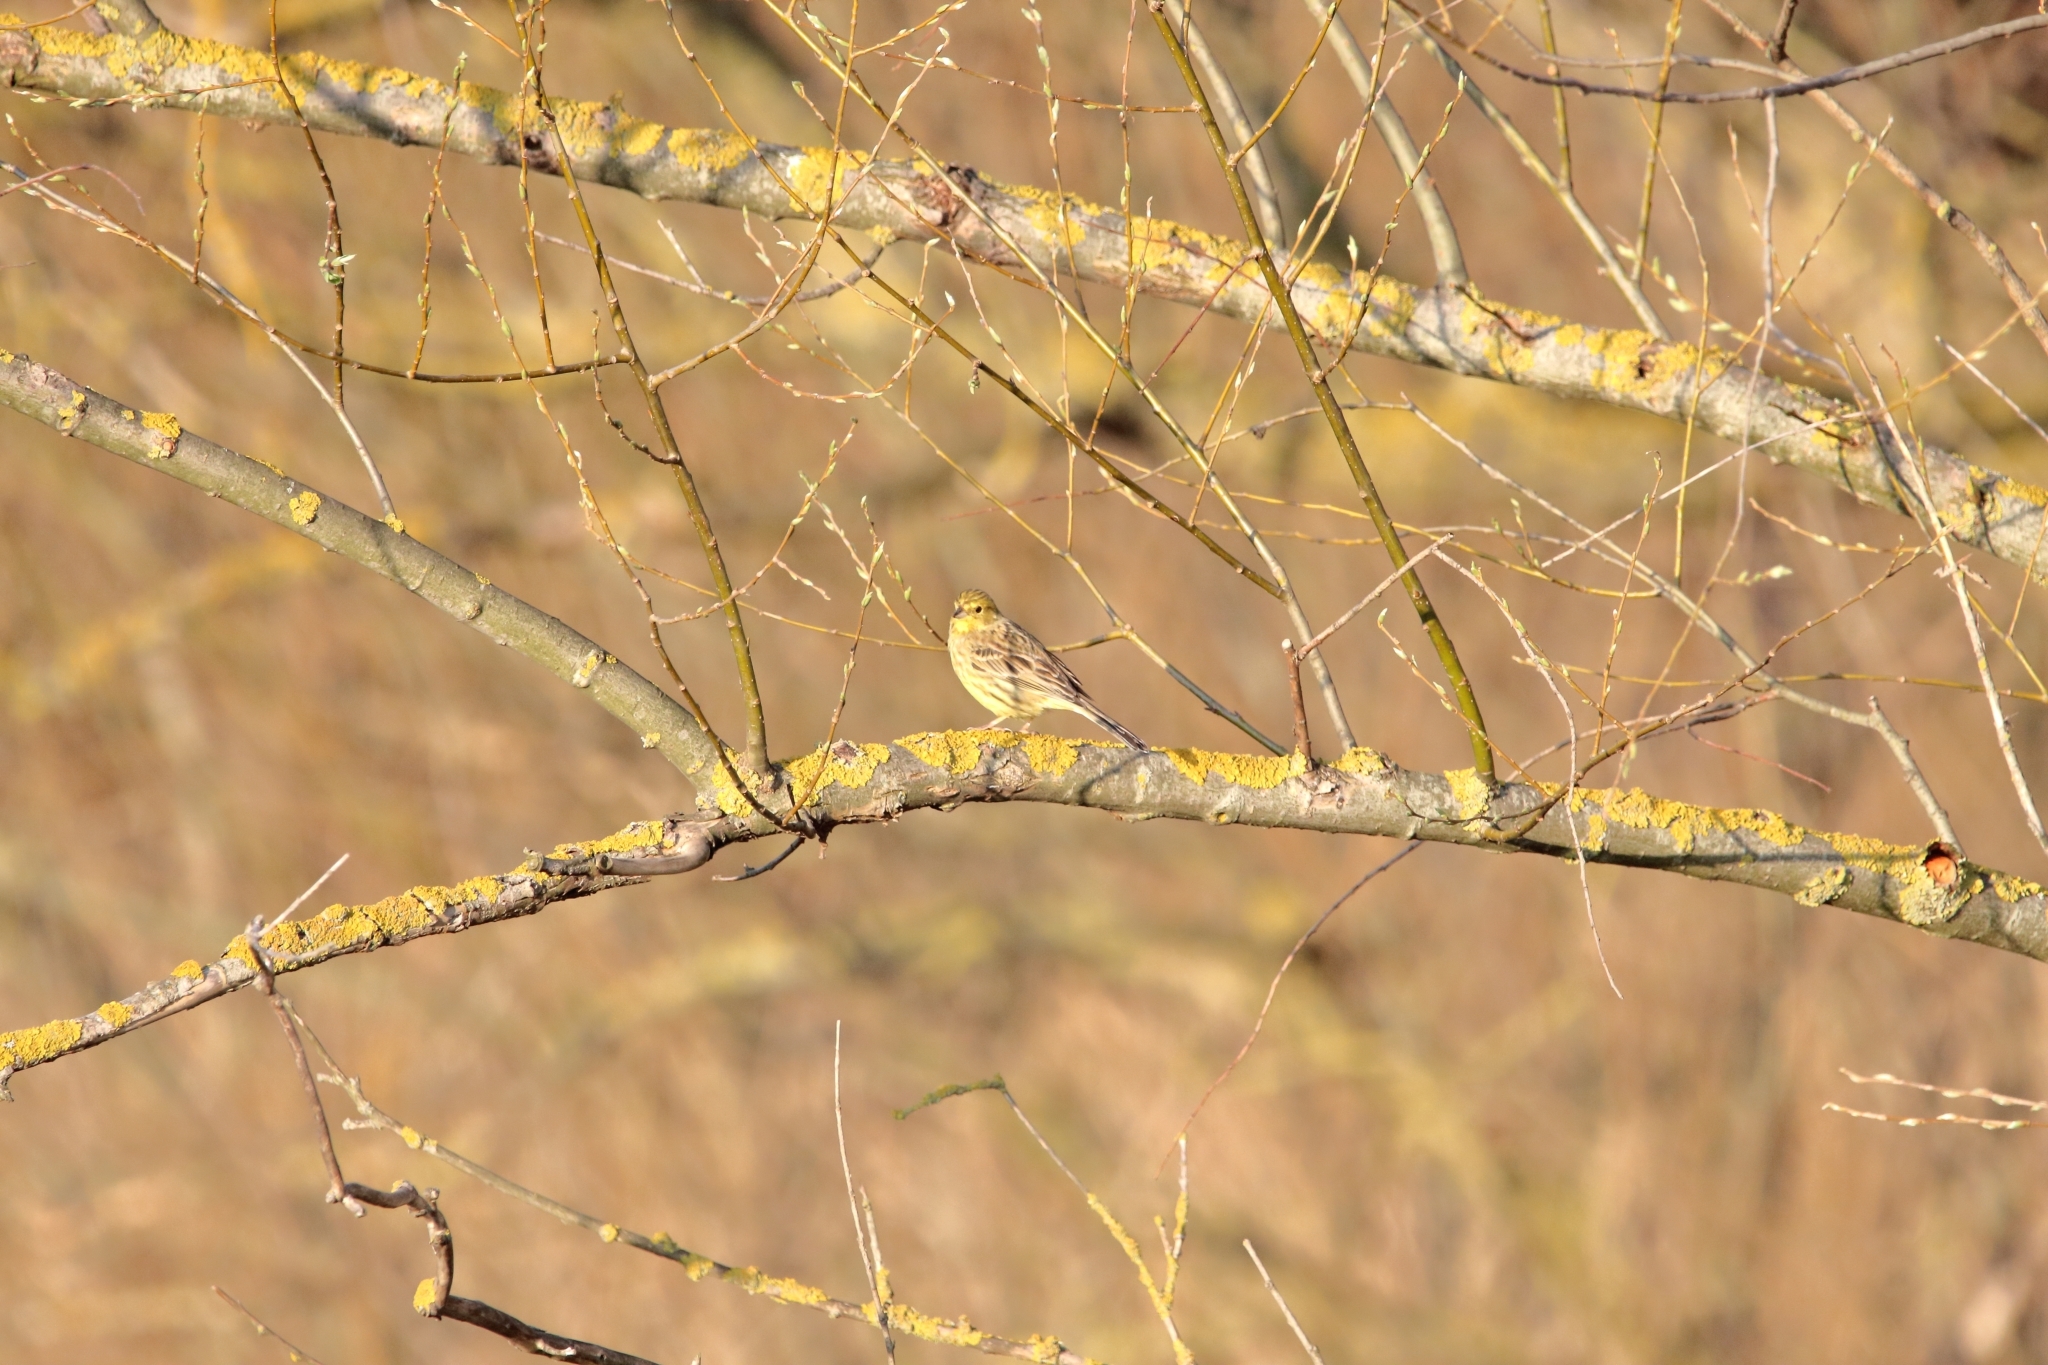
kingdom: Animalia
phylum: Chordata
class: Aves
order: Passeriformes
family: Emberizidae
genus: Emberiza
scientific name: Emberiza citrinella
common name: Yellowhammer
